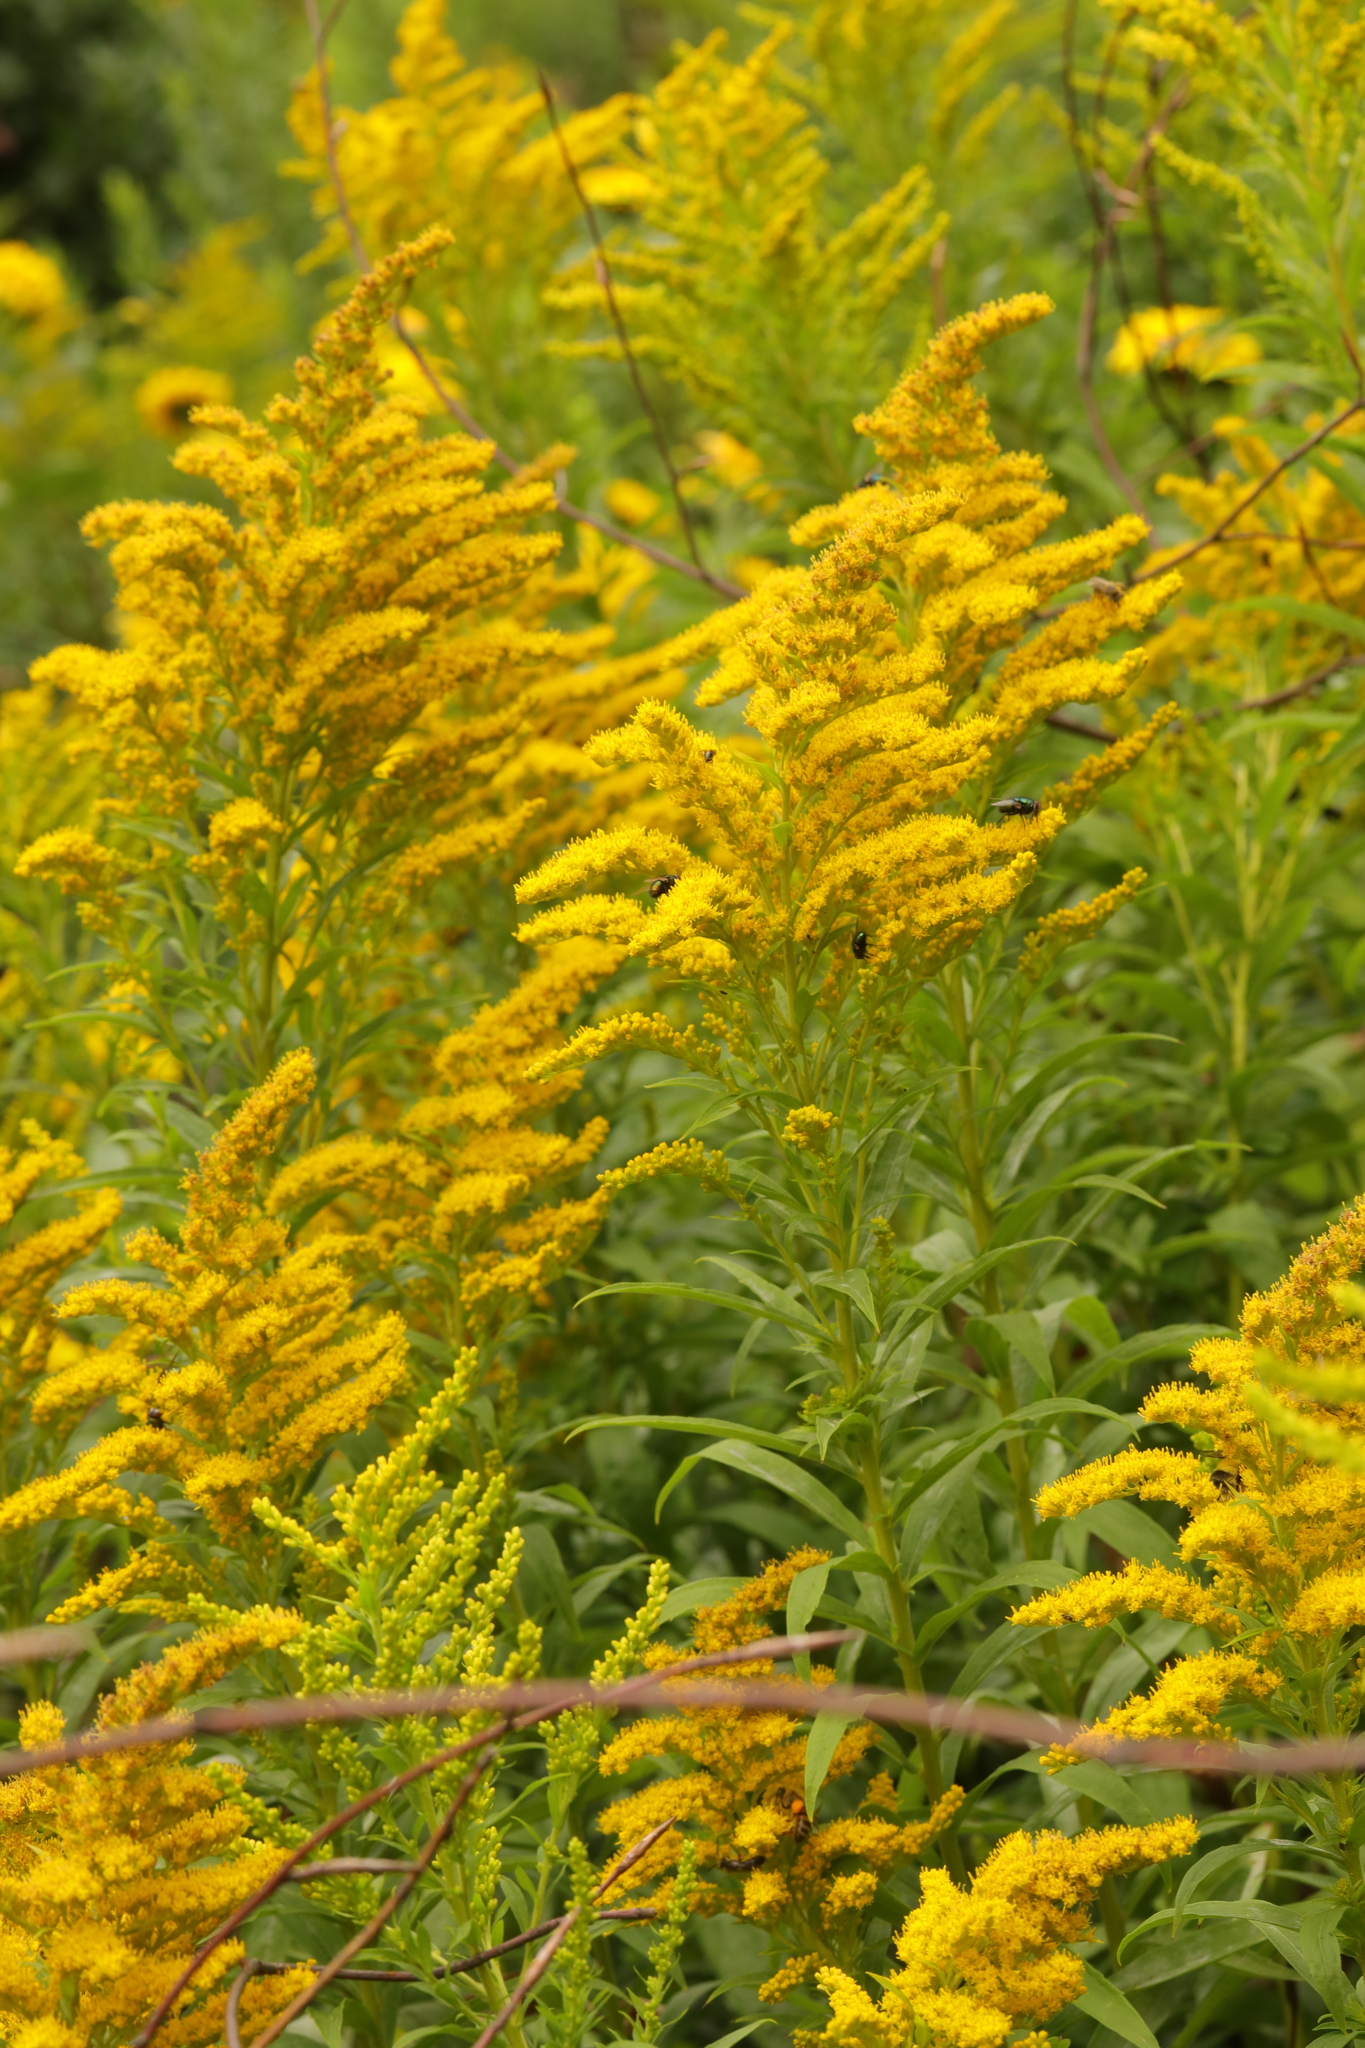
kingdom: Plantae
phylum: Tracheophyta
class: Magnoliopsida
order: Asterales
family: Asteraceae
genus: Solidago
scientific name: Solidago canadensis
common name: Canada goldenrod
